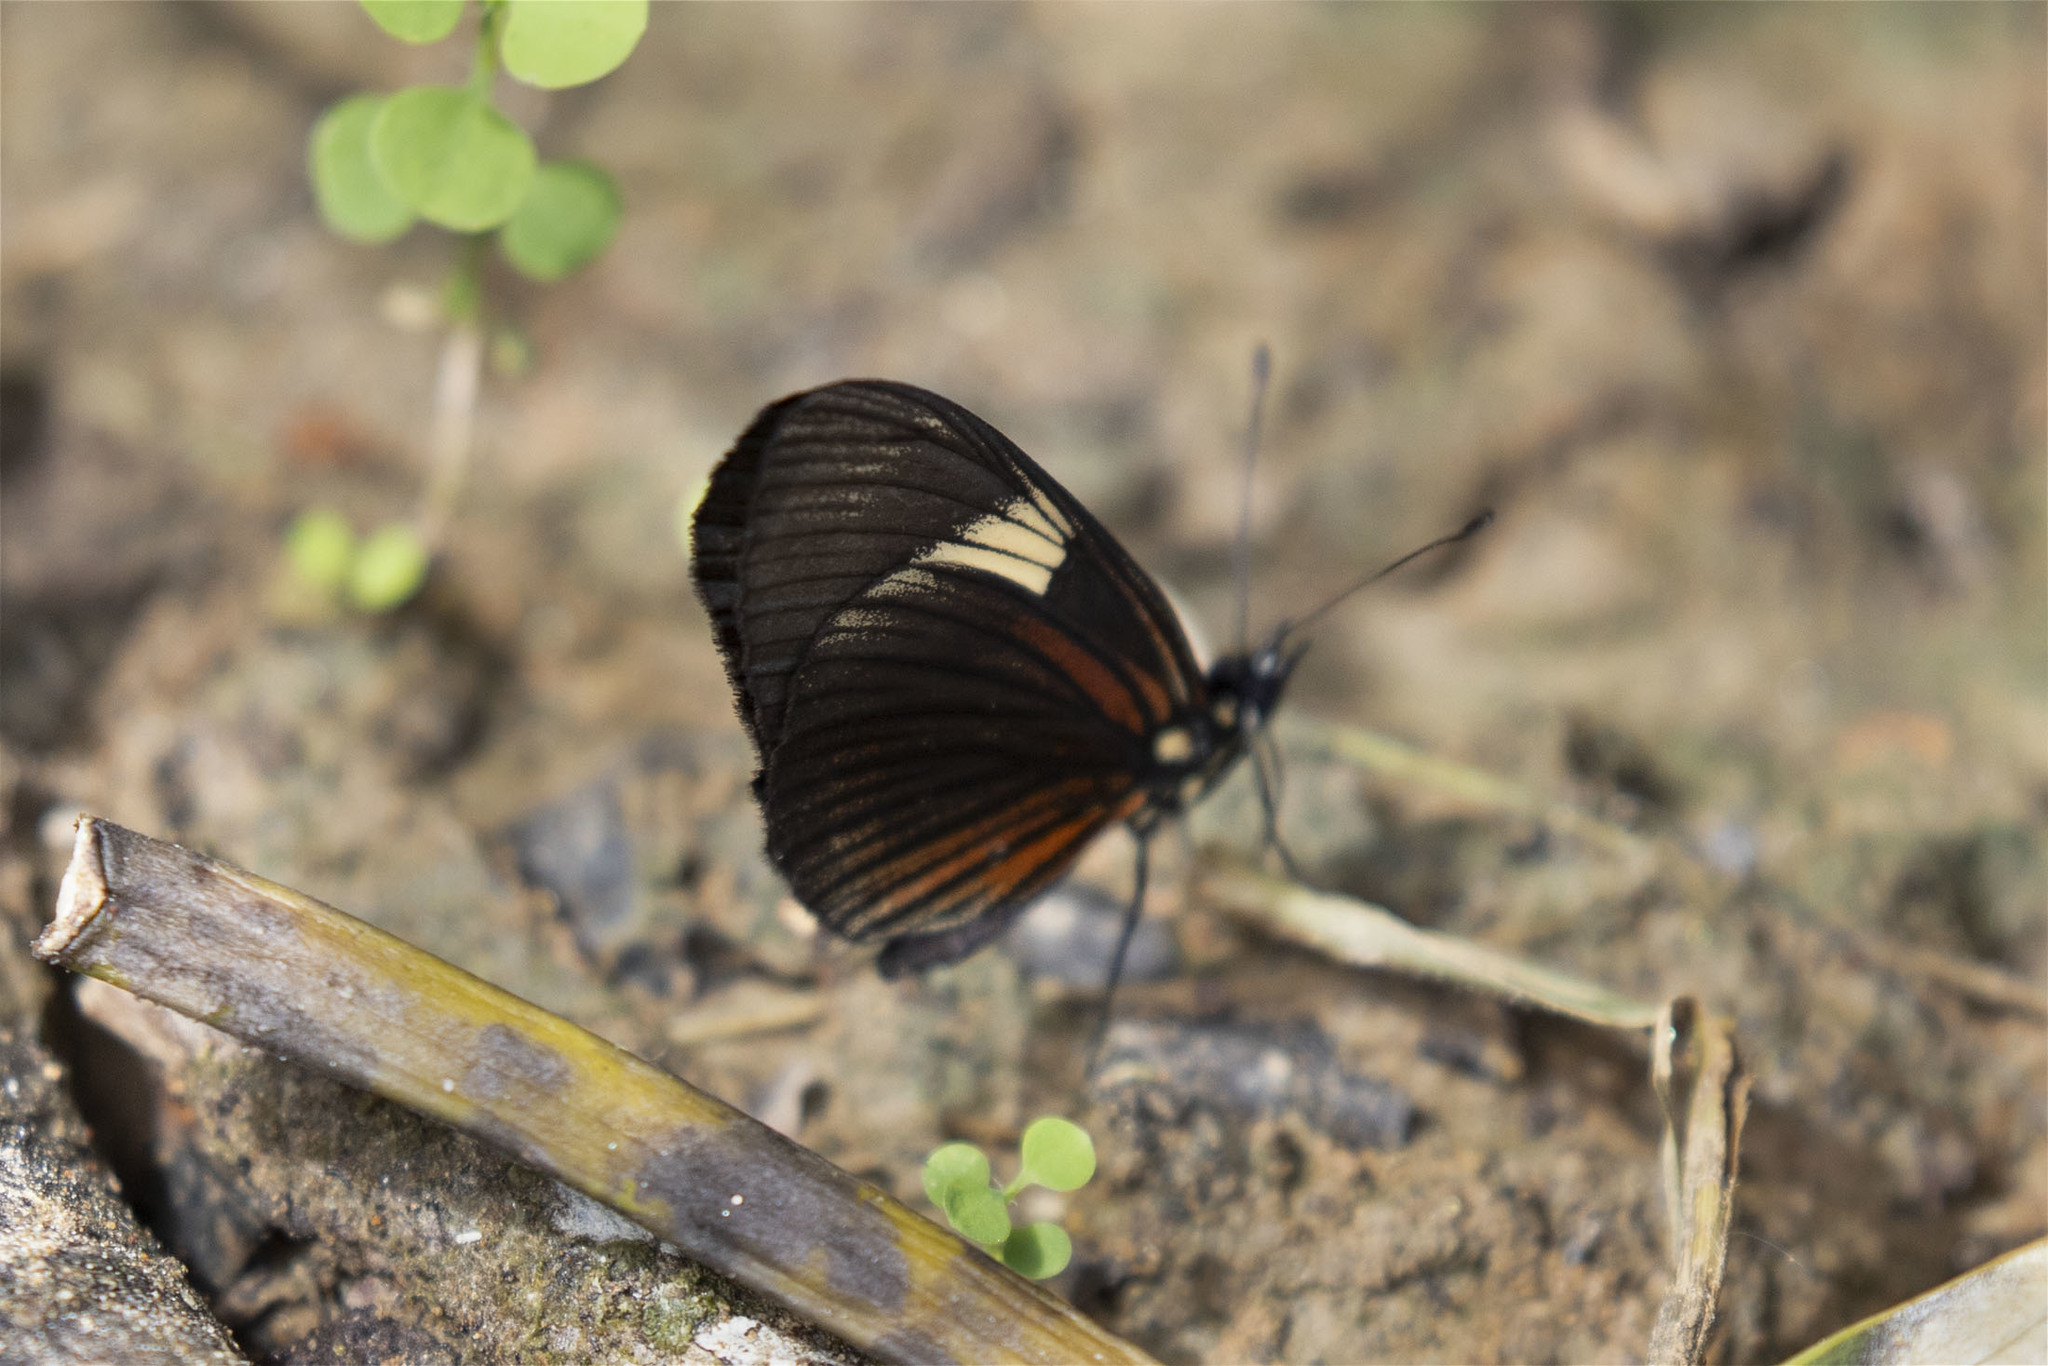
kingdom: Animalia
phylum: Arthropoda
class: Insecta
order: Lepidoptera
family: Nymphalidae
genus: Castilia
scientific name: Castilia perilla
